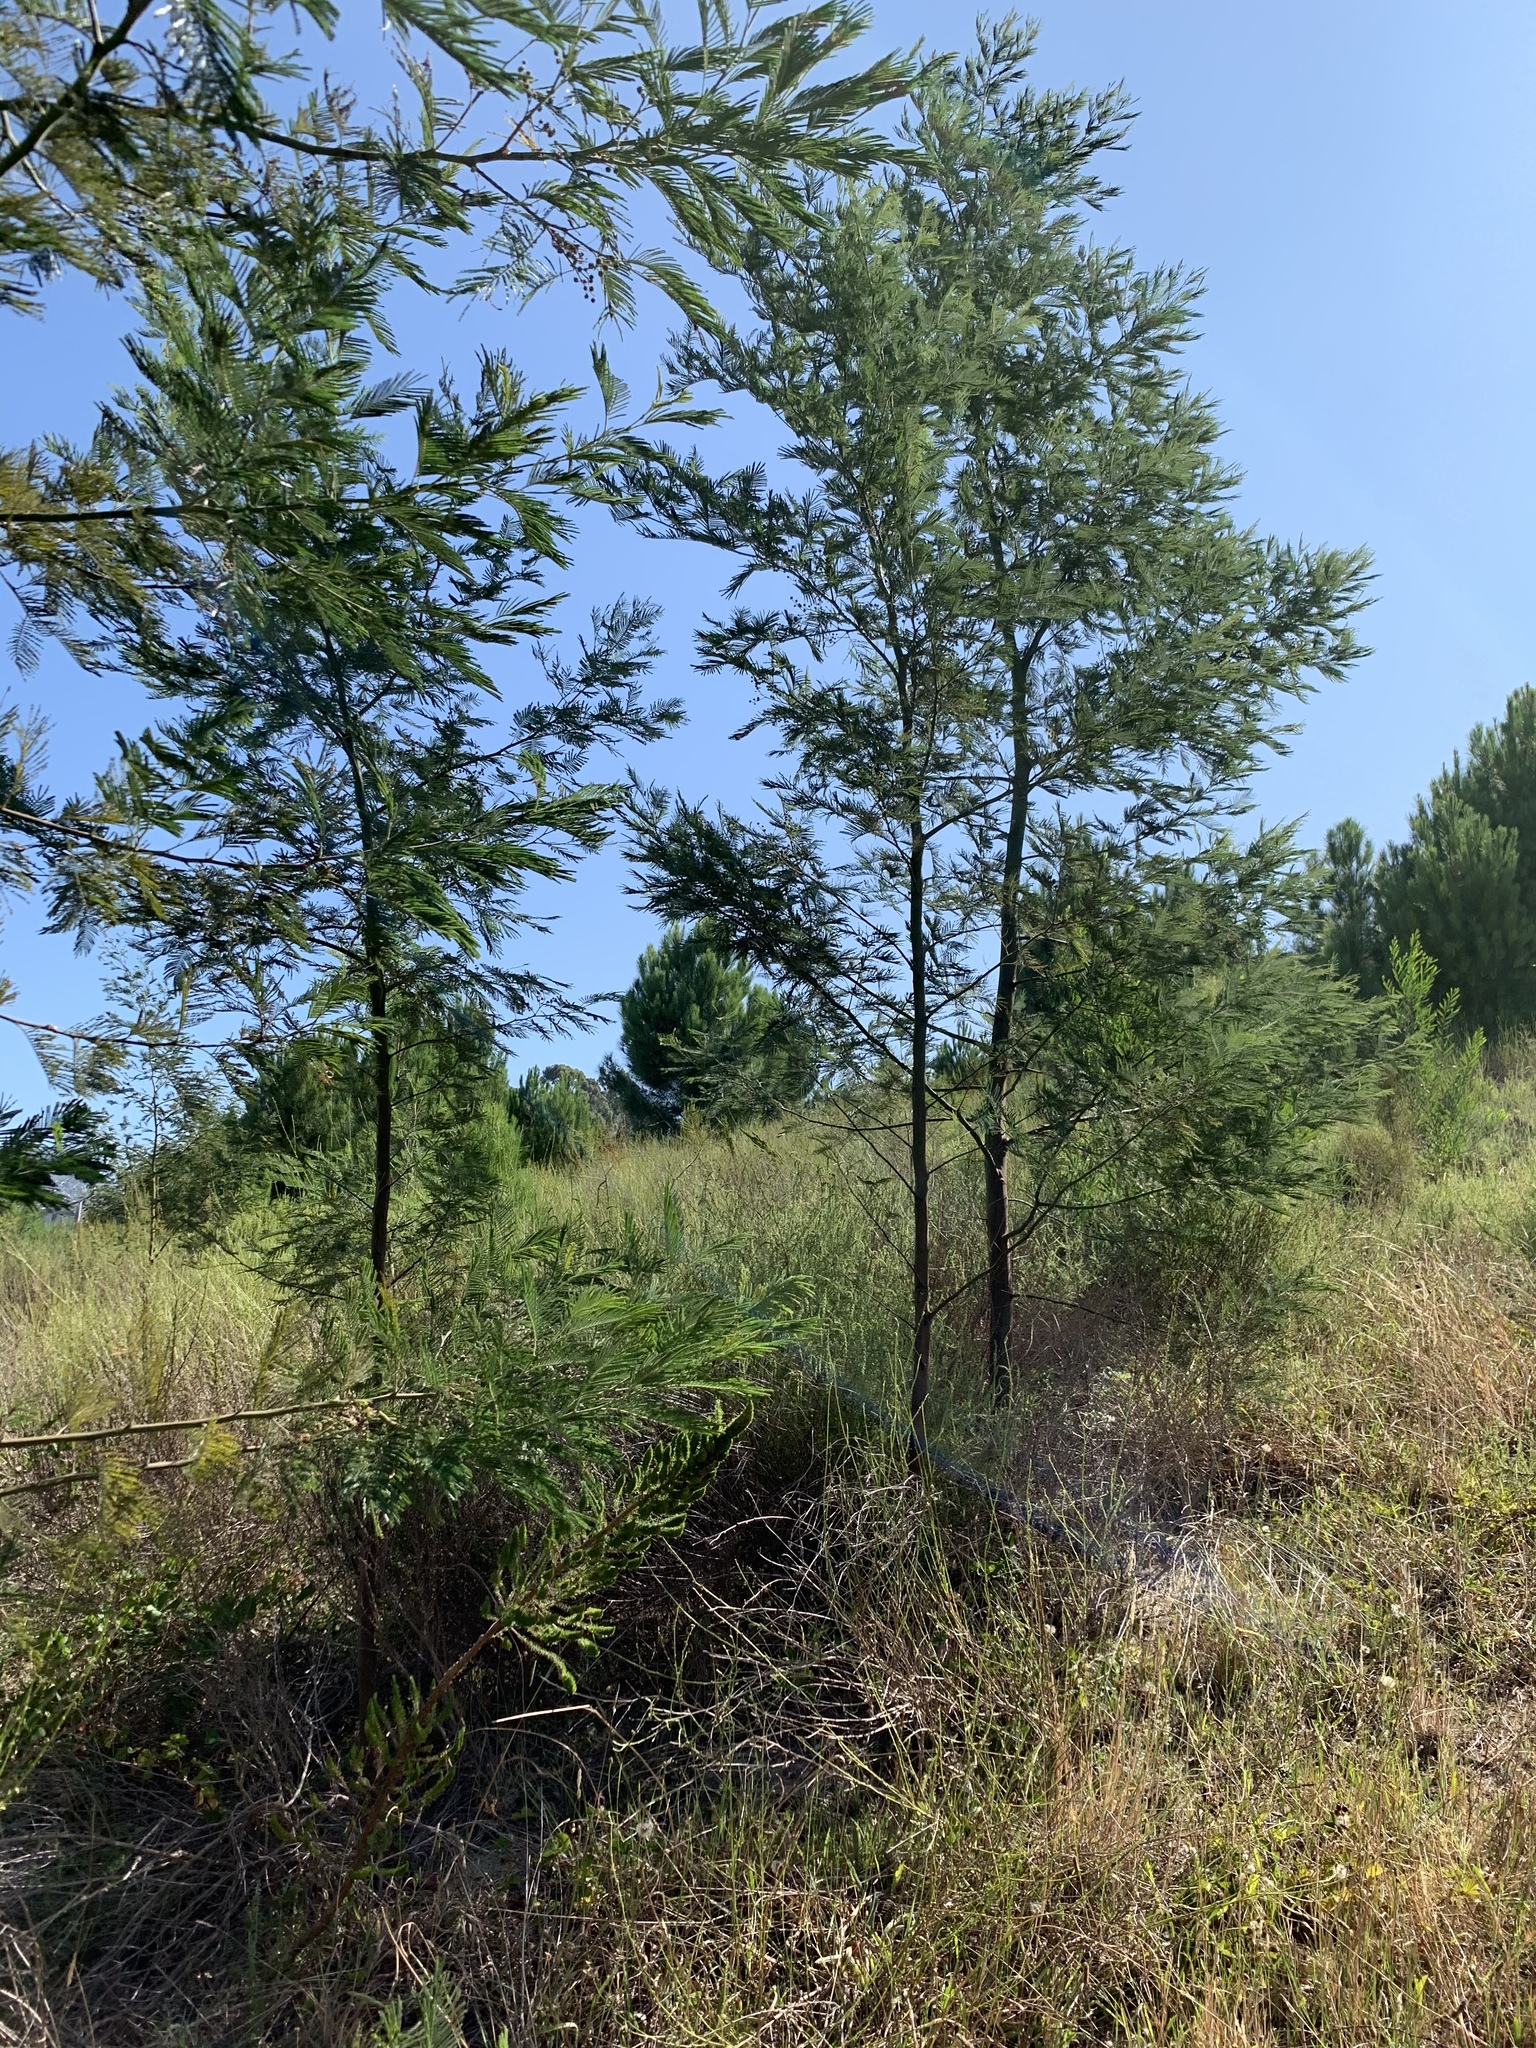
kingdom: Plantae
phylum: Tracheophyta
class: Magnoliopsida
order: Fabales
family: Fabaceae
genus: Acacia
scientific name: Acacia mearnsii
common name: Black wattle
